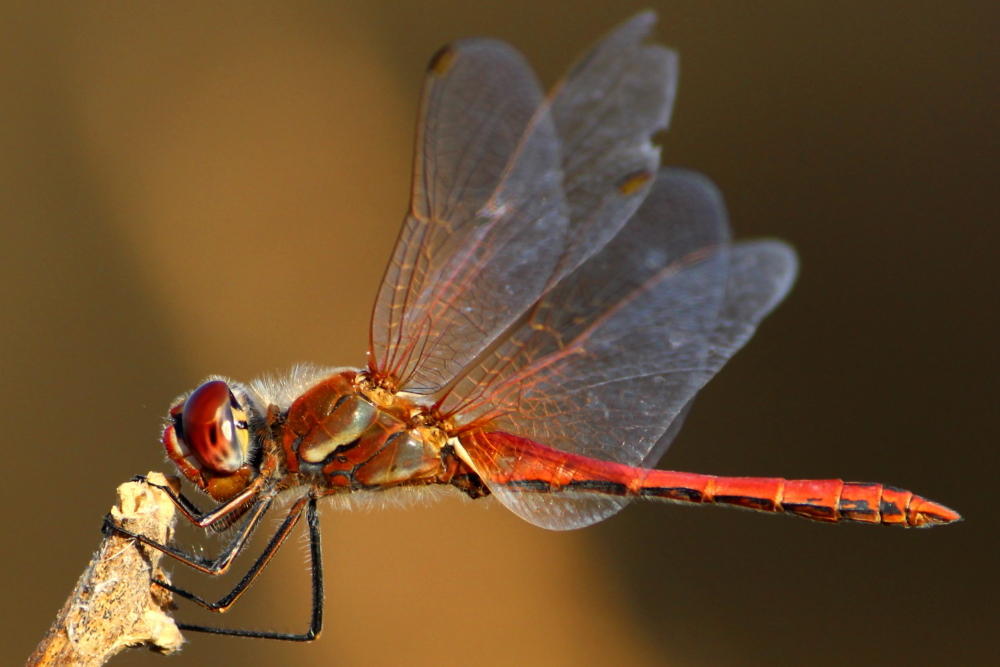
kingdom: Animalia
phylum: Arthropoda
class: Insecta
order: Odonata
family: Libellulidae
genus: Sympetrum
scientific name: Sympetrum fonscolombii
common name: Red-veined darter
